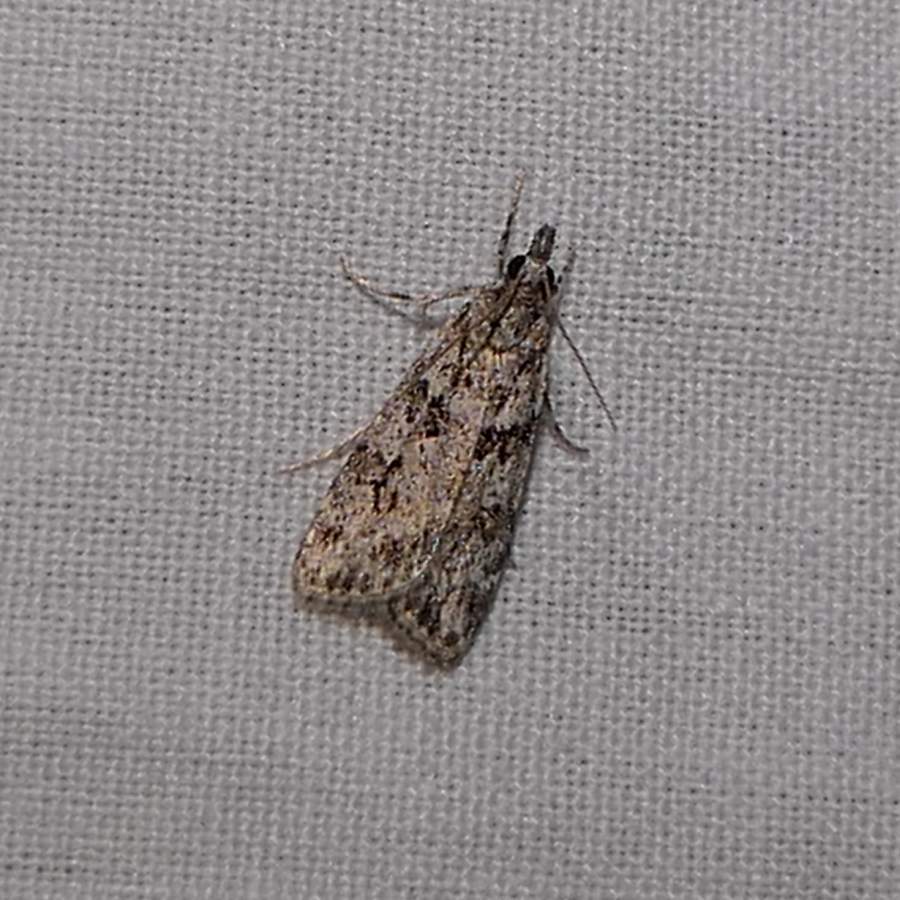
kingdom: Animalia
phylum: Arthropoda
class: Insecta
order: Lepidoptera
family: Crambidae
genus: Scoparia
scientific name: Scoparia biplagialis
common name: Double-striped scoparia moth
